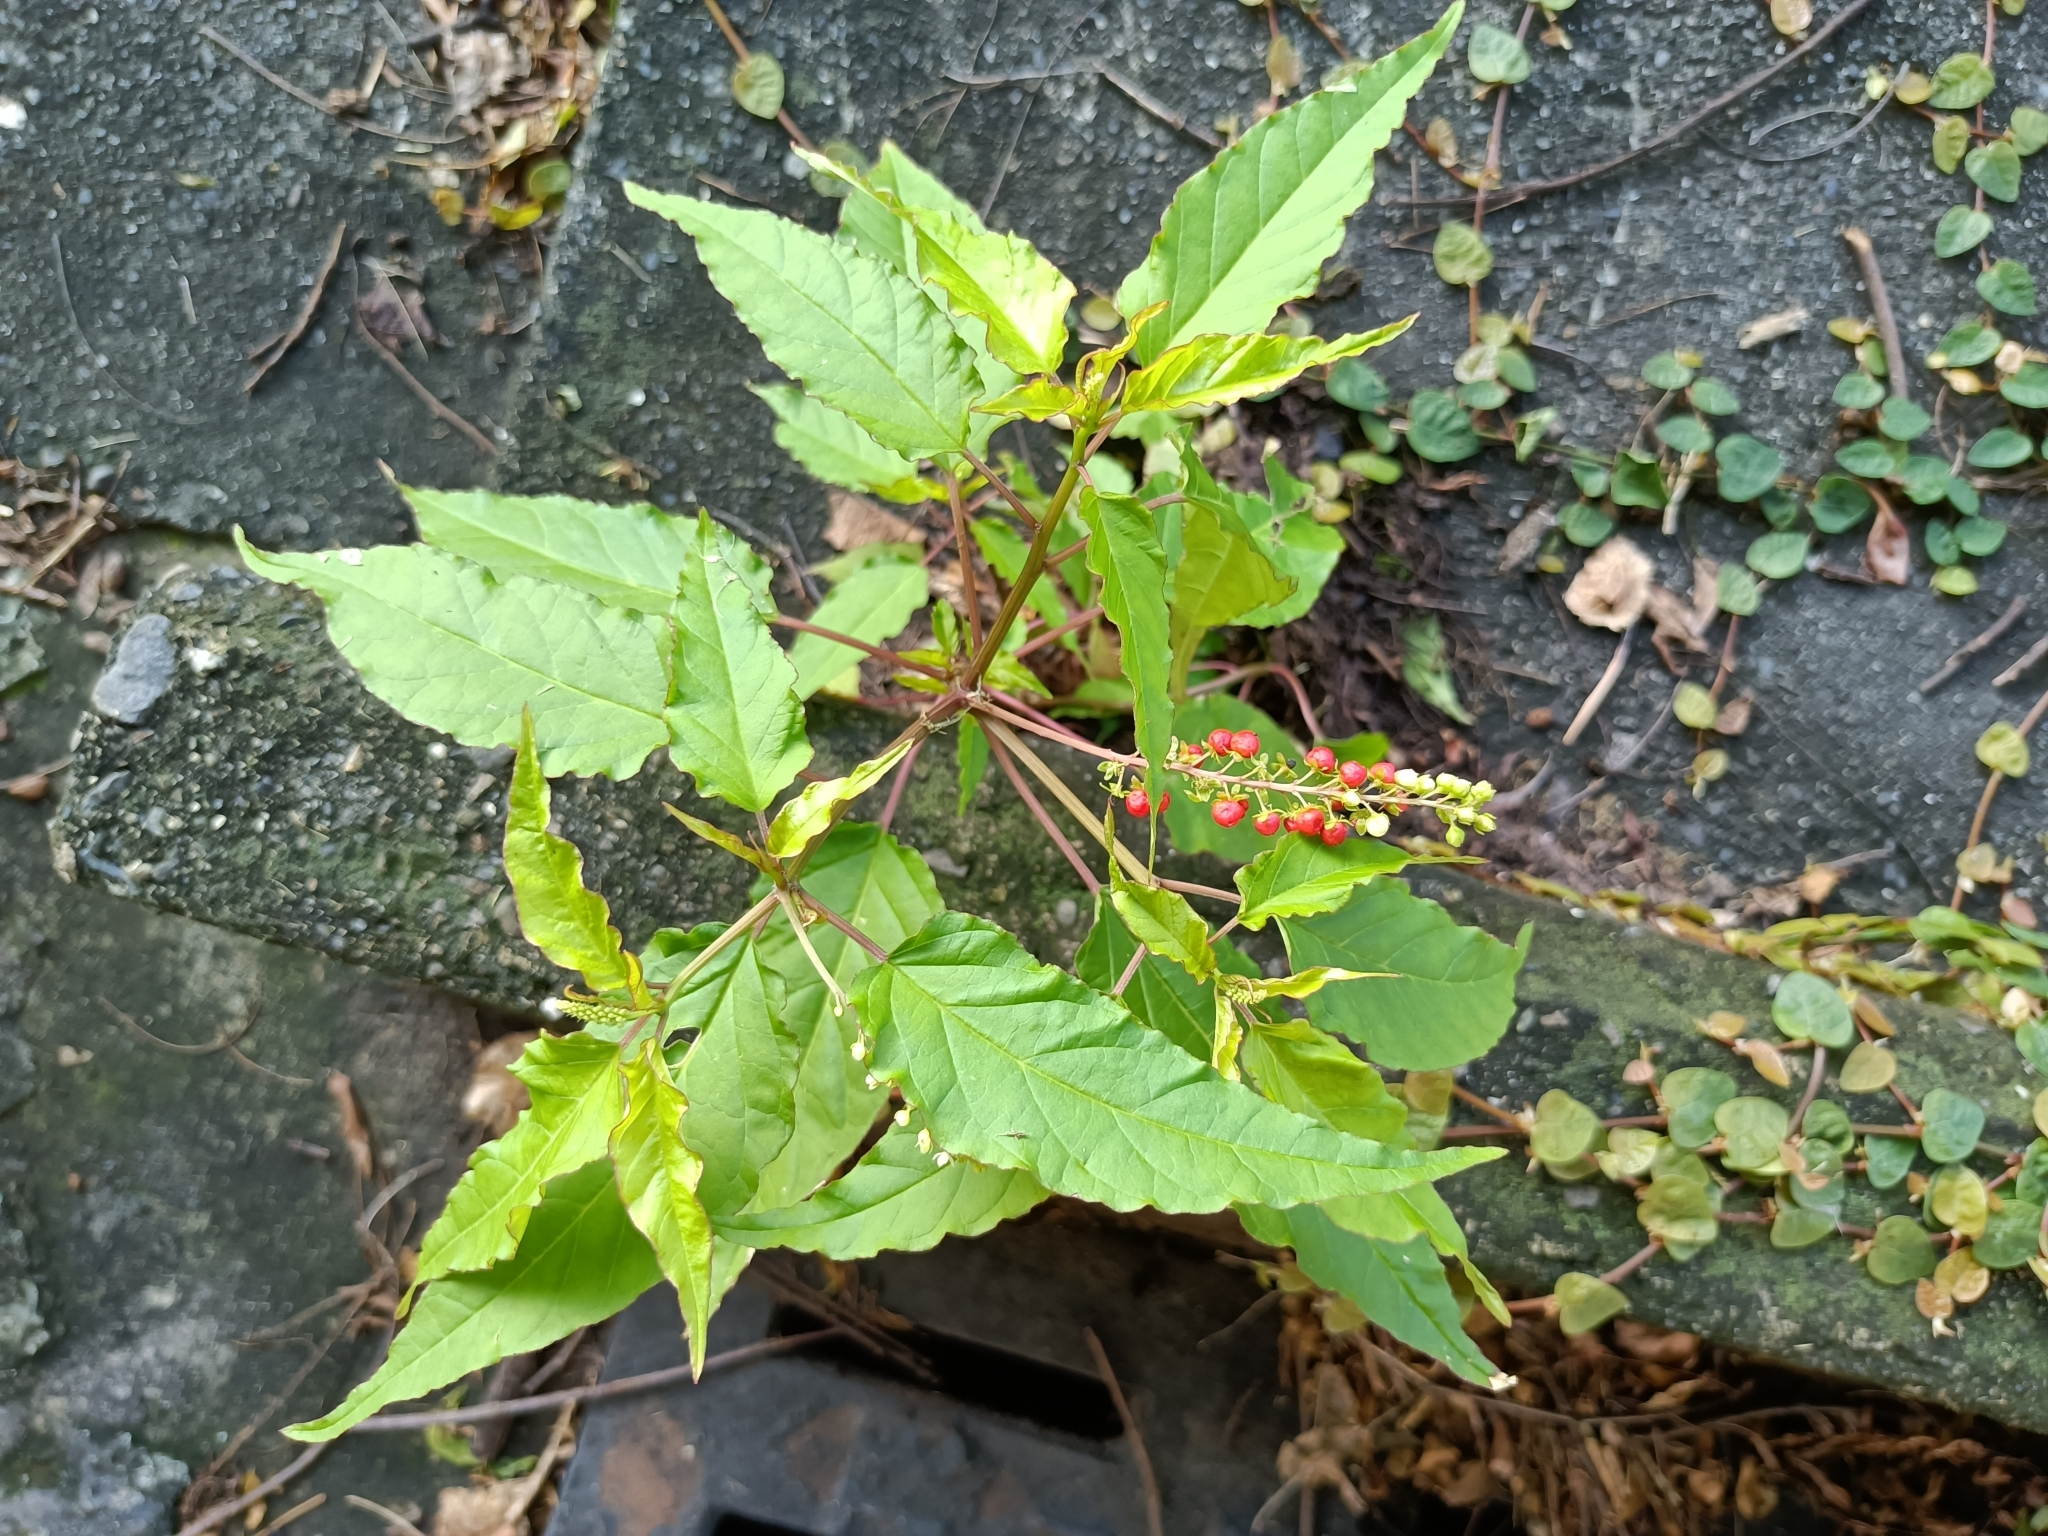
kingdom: Plantae
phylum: Tracheophyta
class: Magnoliopsida
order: Caryophyllales
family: Phytolaccaceae
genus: Rivina
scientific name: Rivina humilis
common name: Rougeplant
